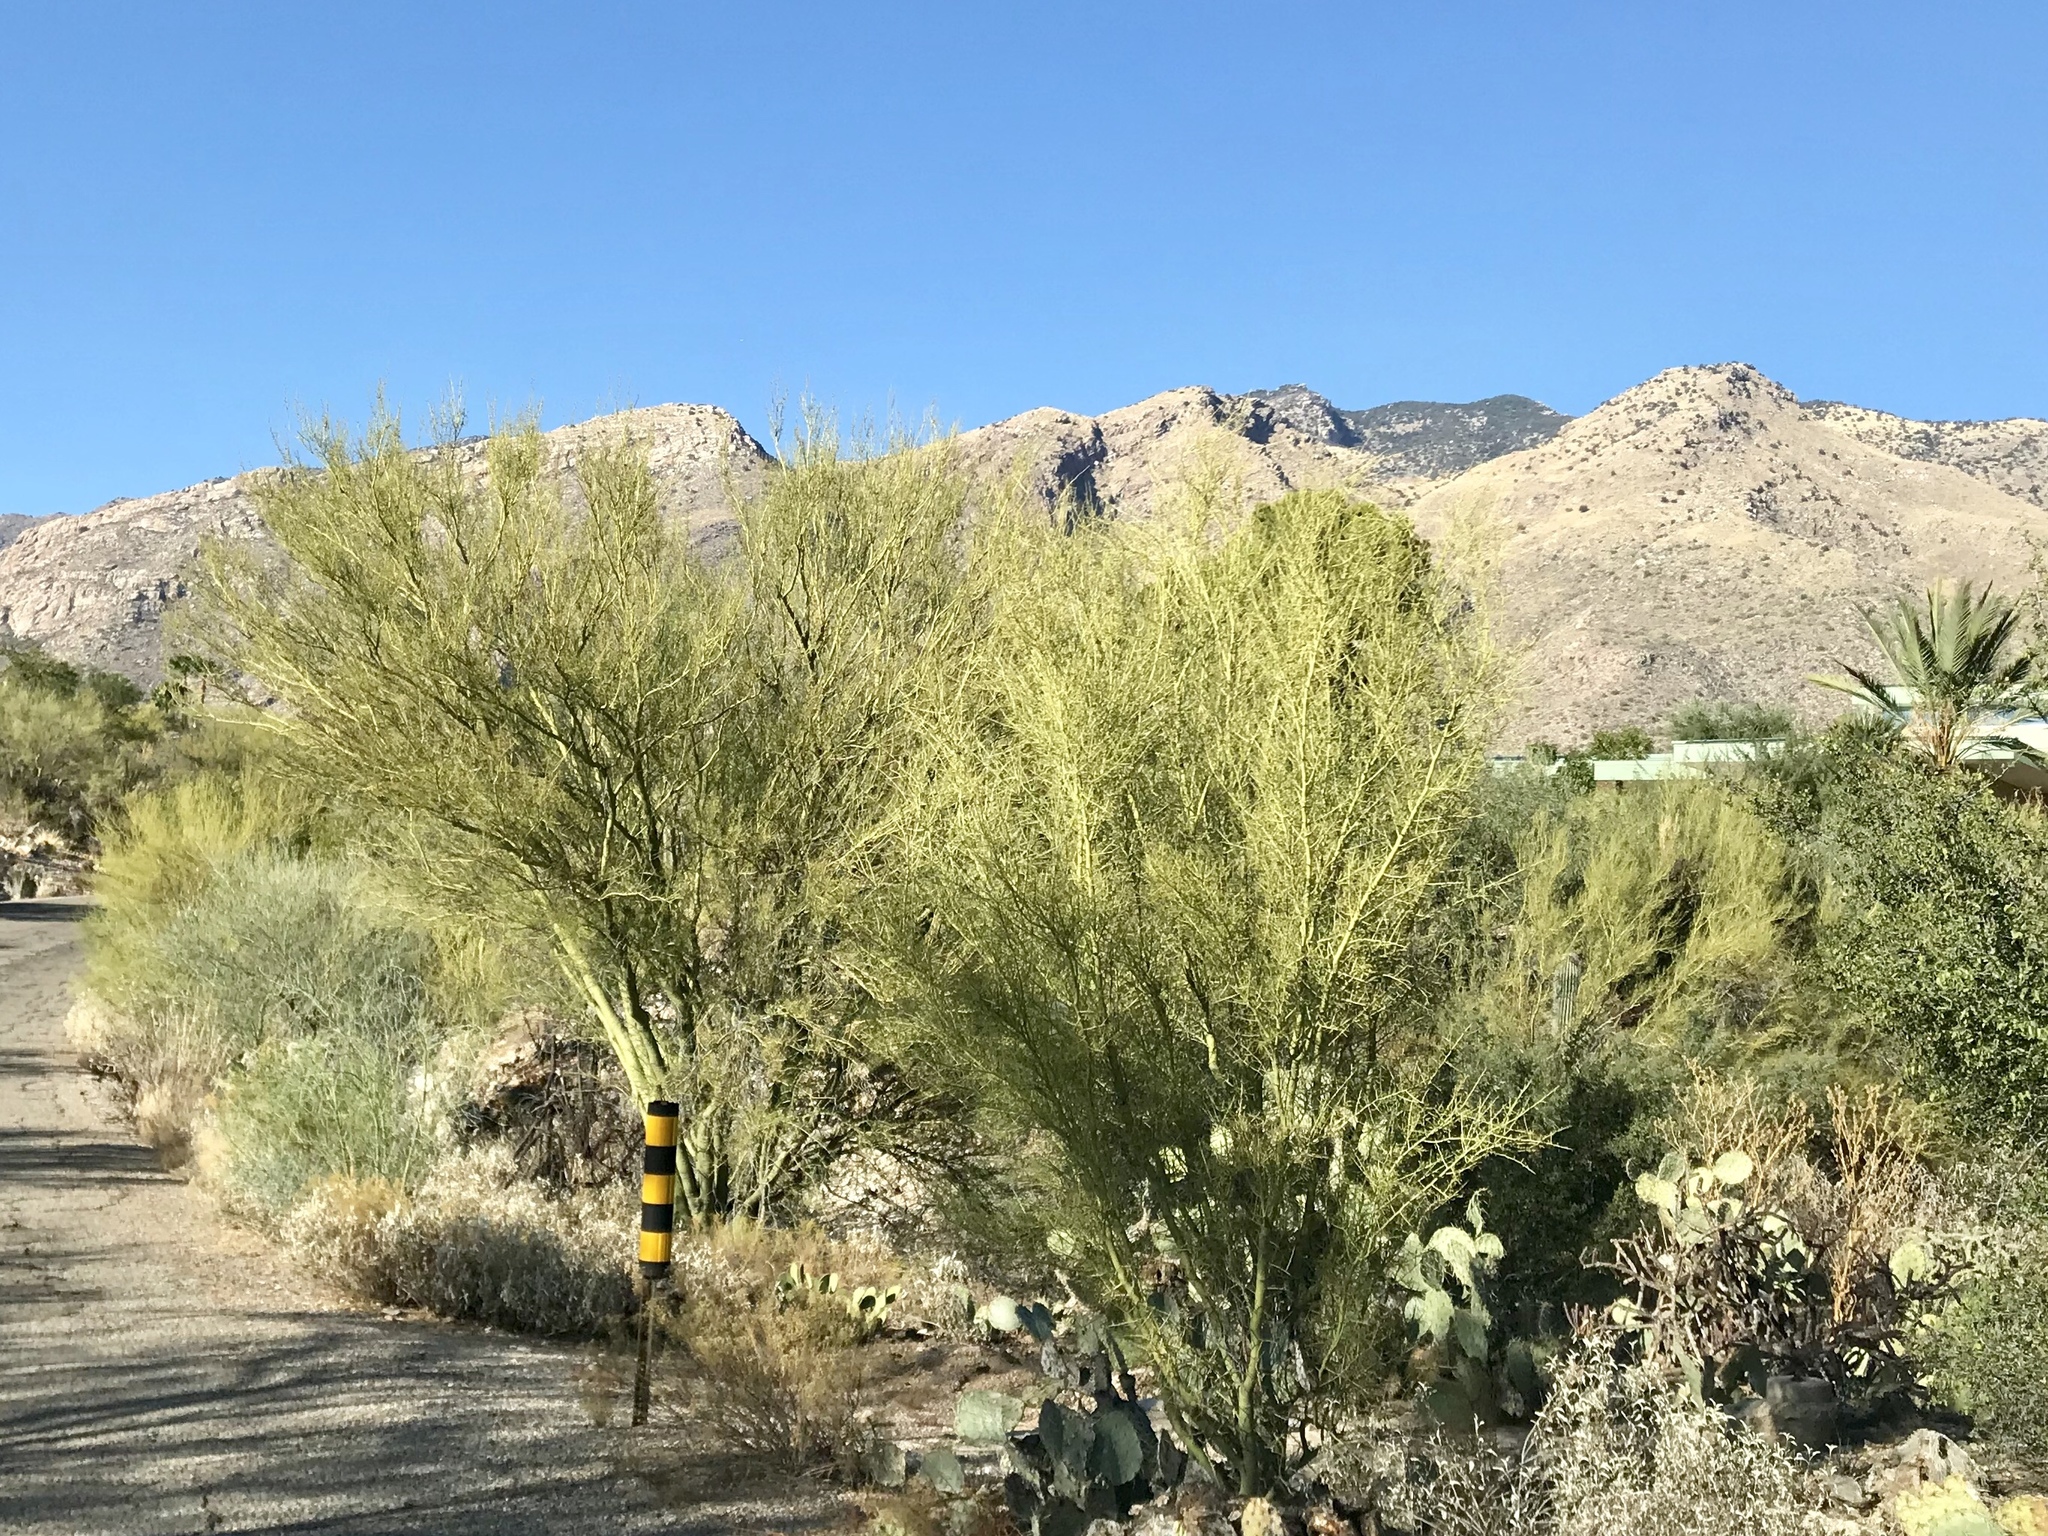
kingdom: Plantae
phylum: Tracheophyta
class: Magnoliopsida
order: Fabales
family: Fabaceae
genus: Parkinsonia
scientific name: Parkinsonia microphylla
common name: Yellow paloverde
